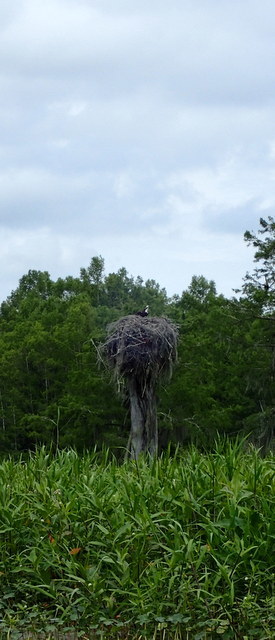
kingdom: Animalia
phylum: Chordata
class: Aves
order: Accipitriformes
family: Pandionidae
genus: Pandion
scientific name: Pandion haliaetus
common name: Osprey
